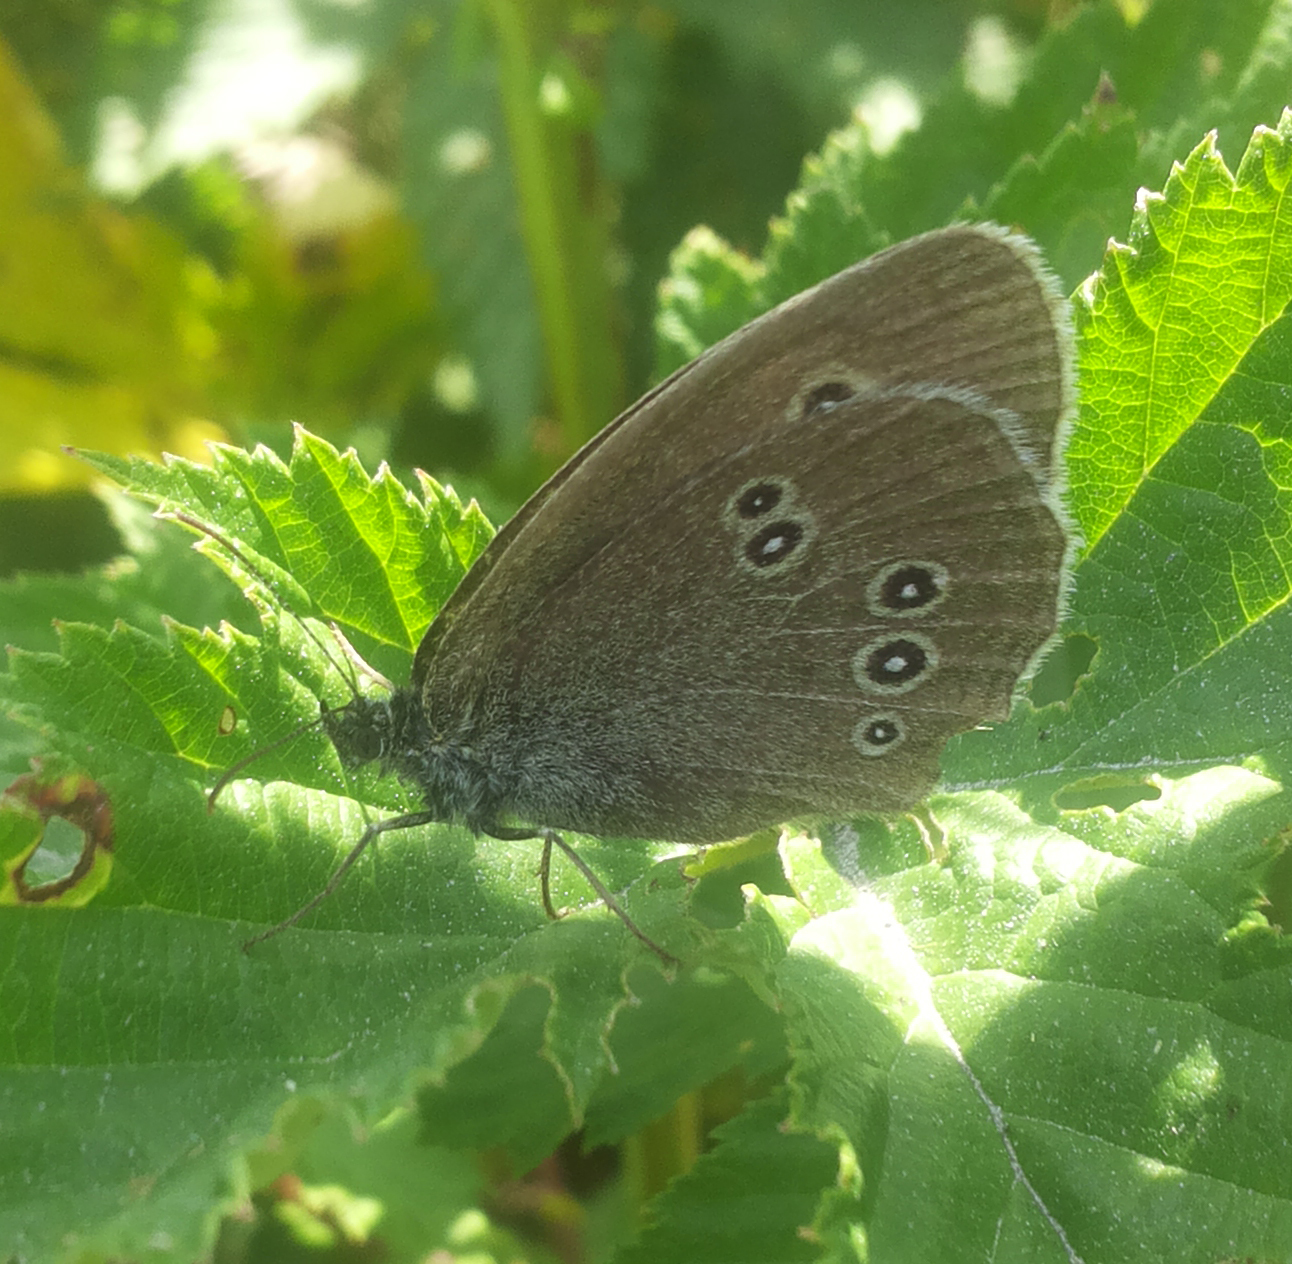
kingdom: Animalia
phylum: Arthropoda
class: Insecta
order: Lepidoptera
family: Nymphalidae
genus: Aphantopus
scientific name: Aphantopus hyperantus
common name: Ringlet
